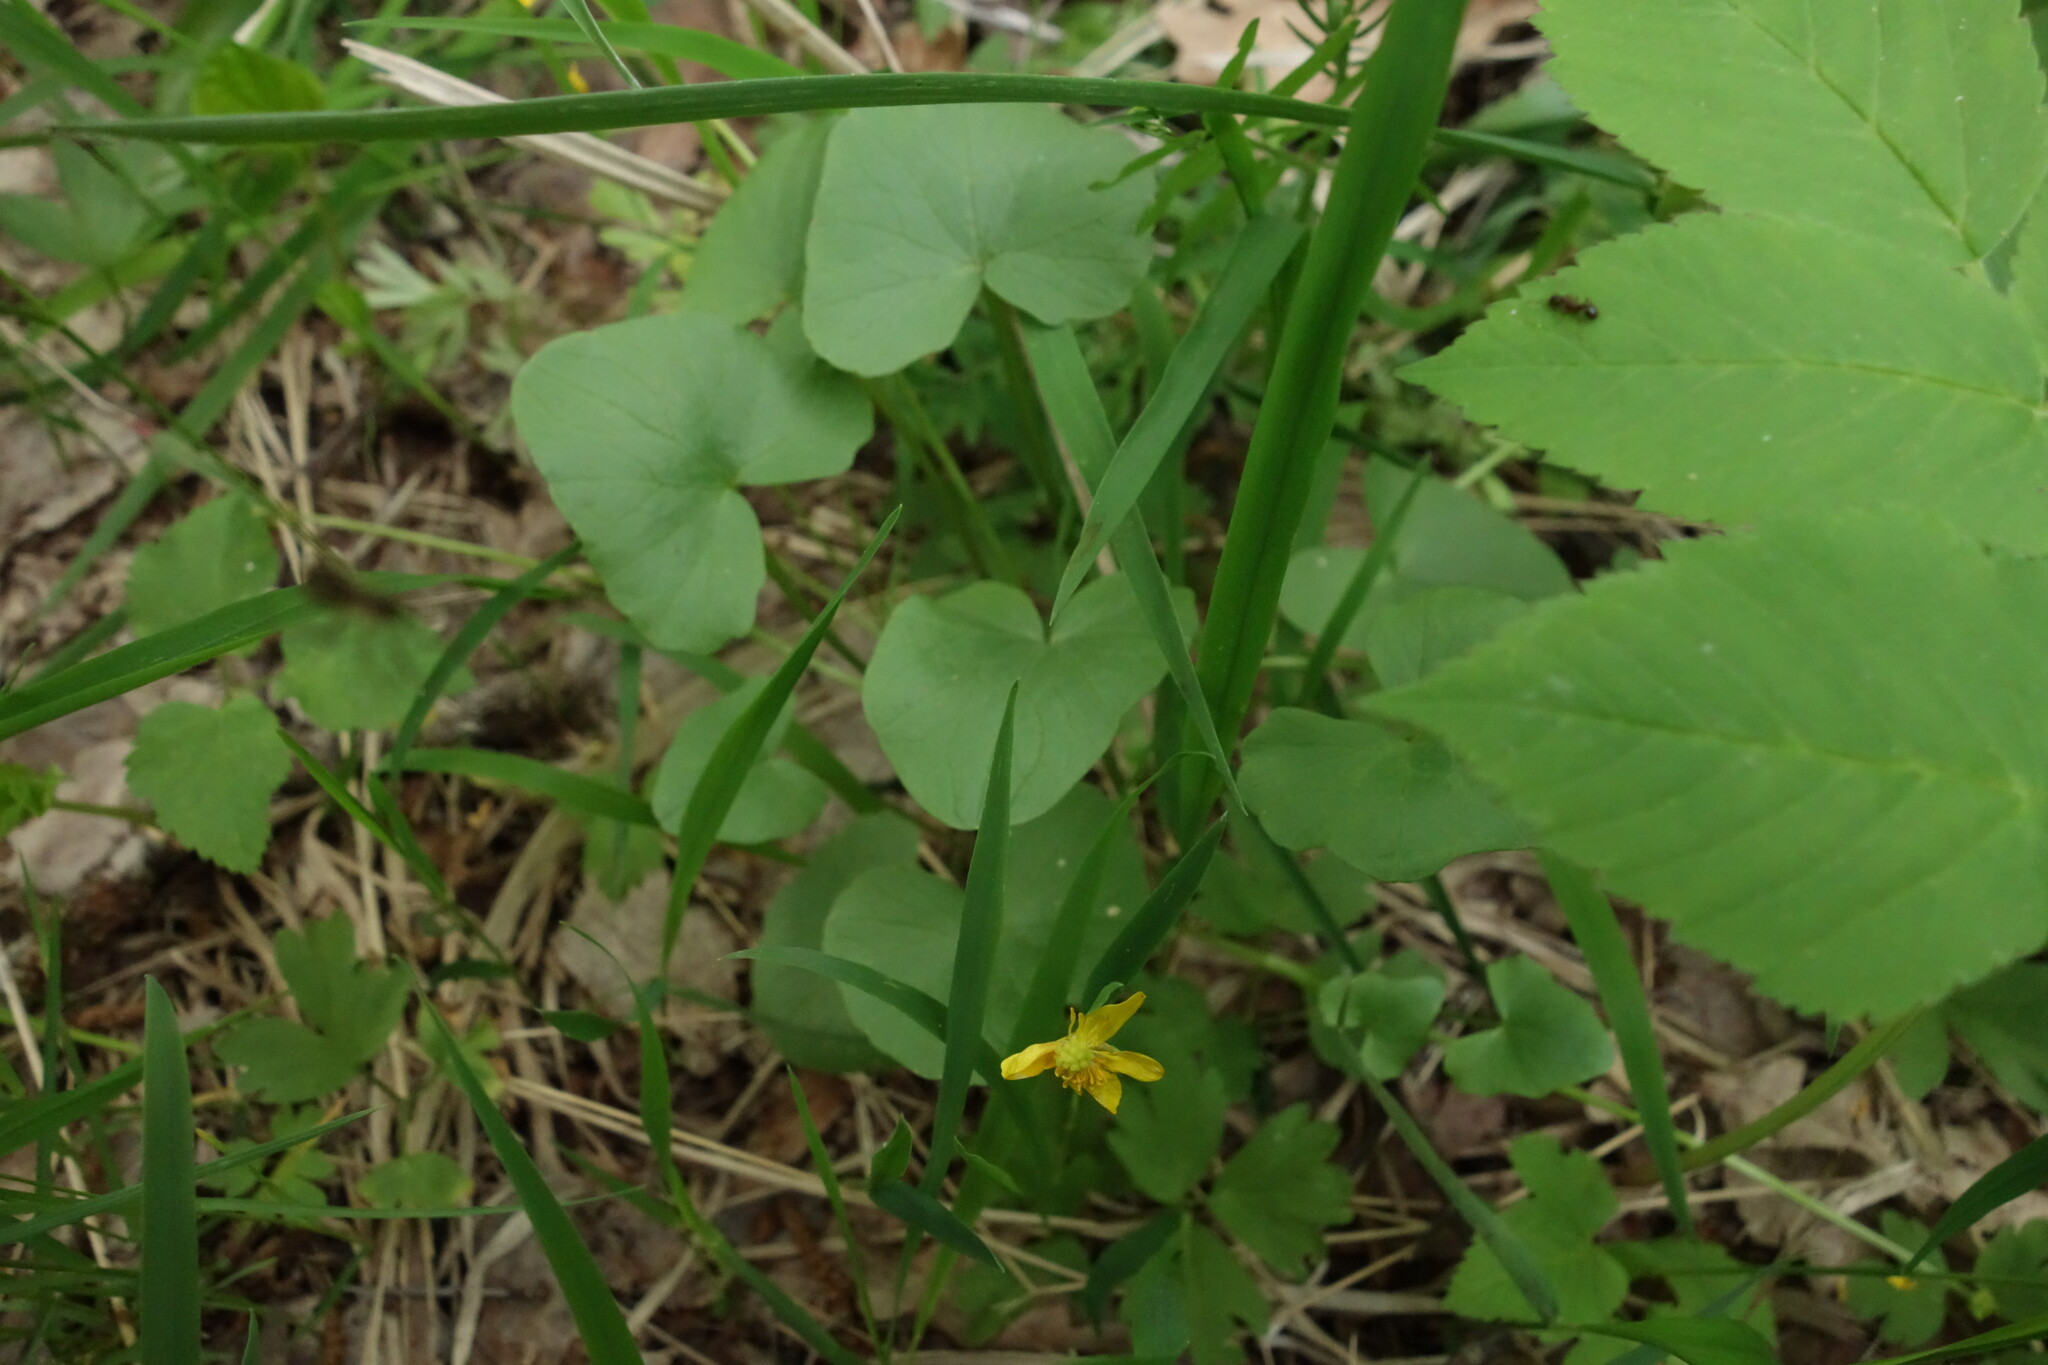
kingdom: Plantae
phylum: Tracheophyta
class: Magnoliopsida
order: Ranunculales
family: Ranunculaceae
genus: Ficaria
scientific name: Ficaria verna
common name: Lesser celandine
